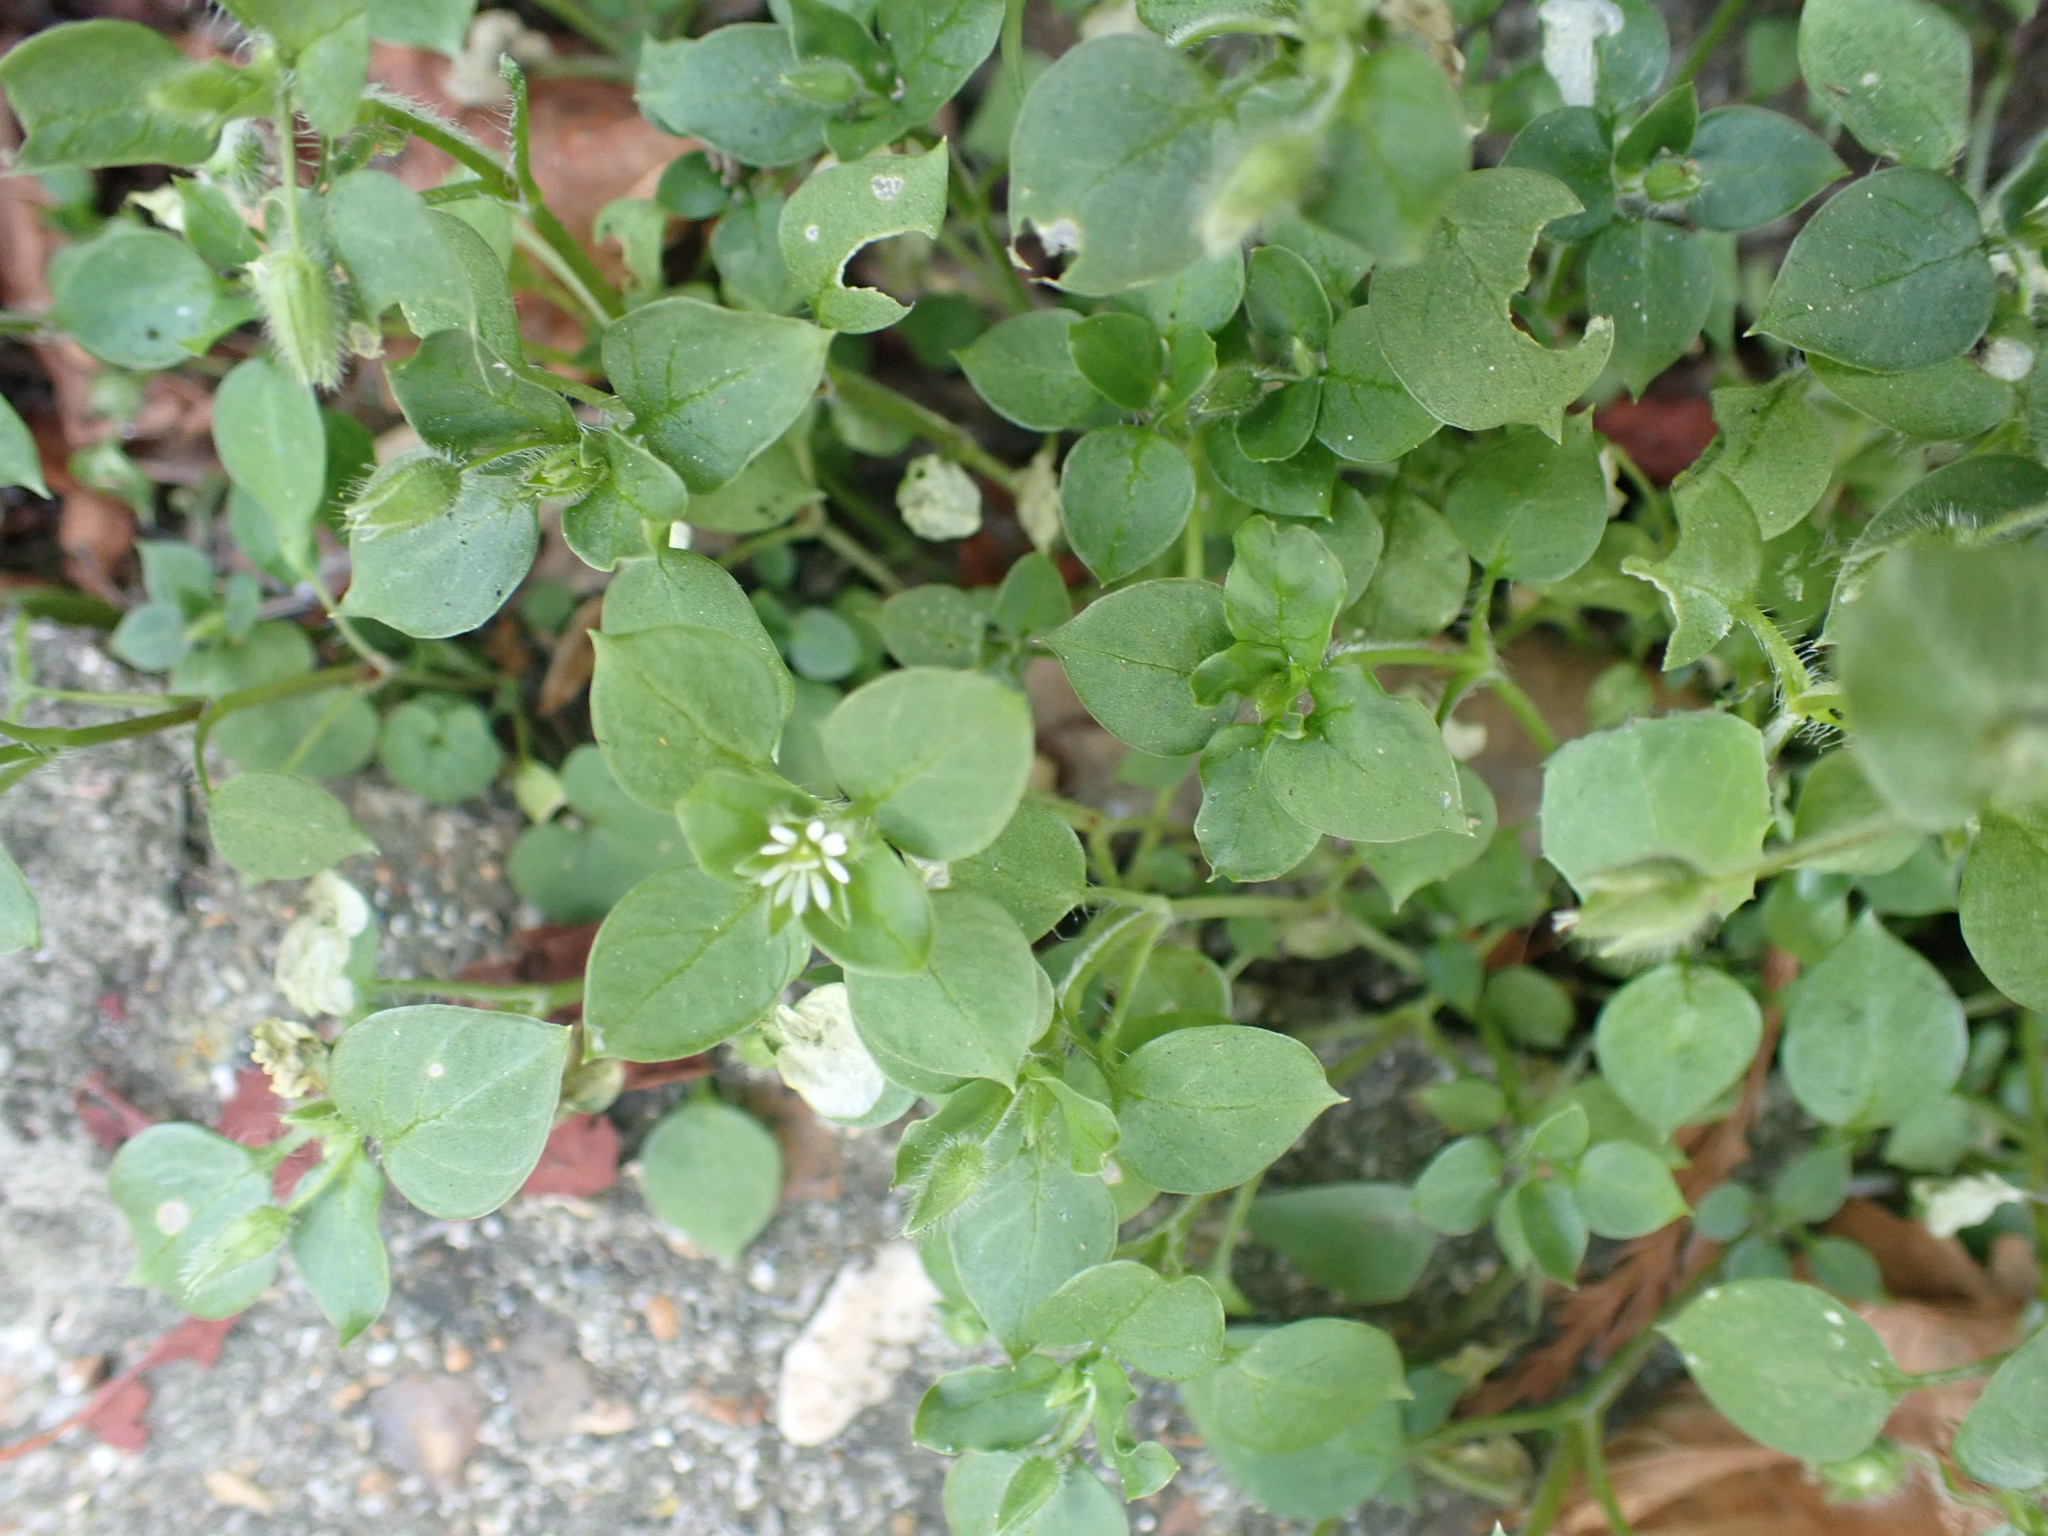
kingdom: Plantae
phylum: Tracheophyta
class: Magnoliopsida
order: Caryophyllales
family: Caryophyllaceae
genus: Stellaria
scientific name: Stellaria media
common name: Common chickweed
